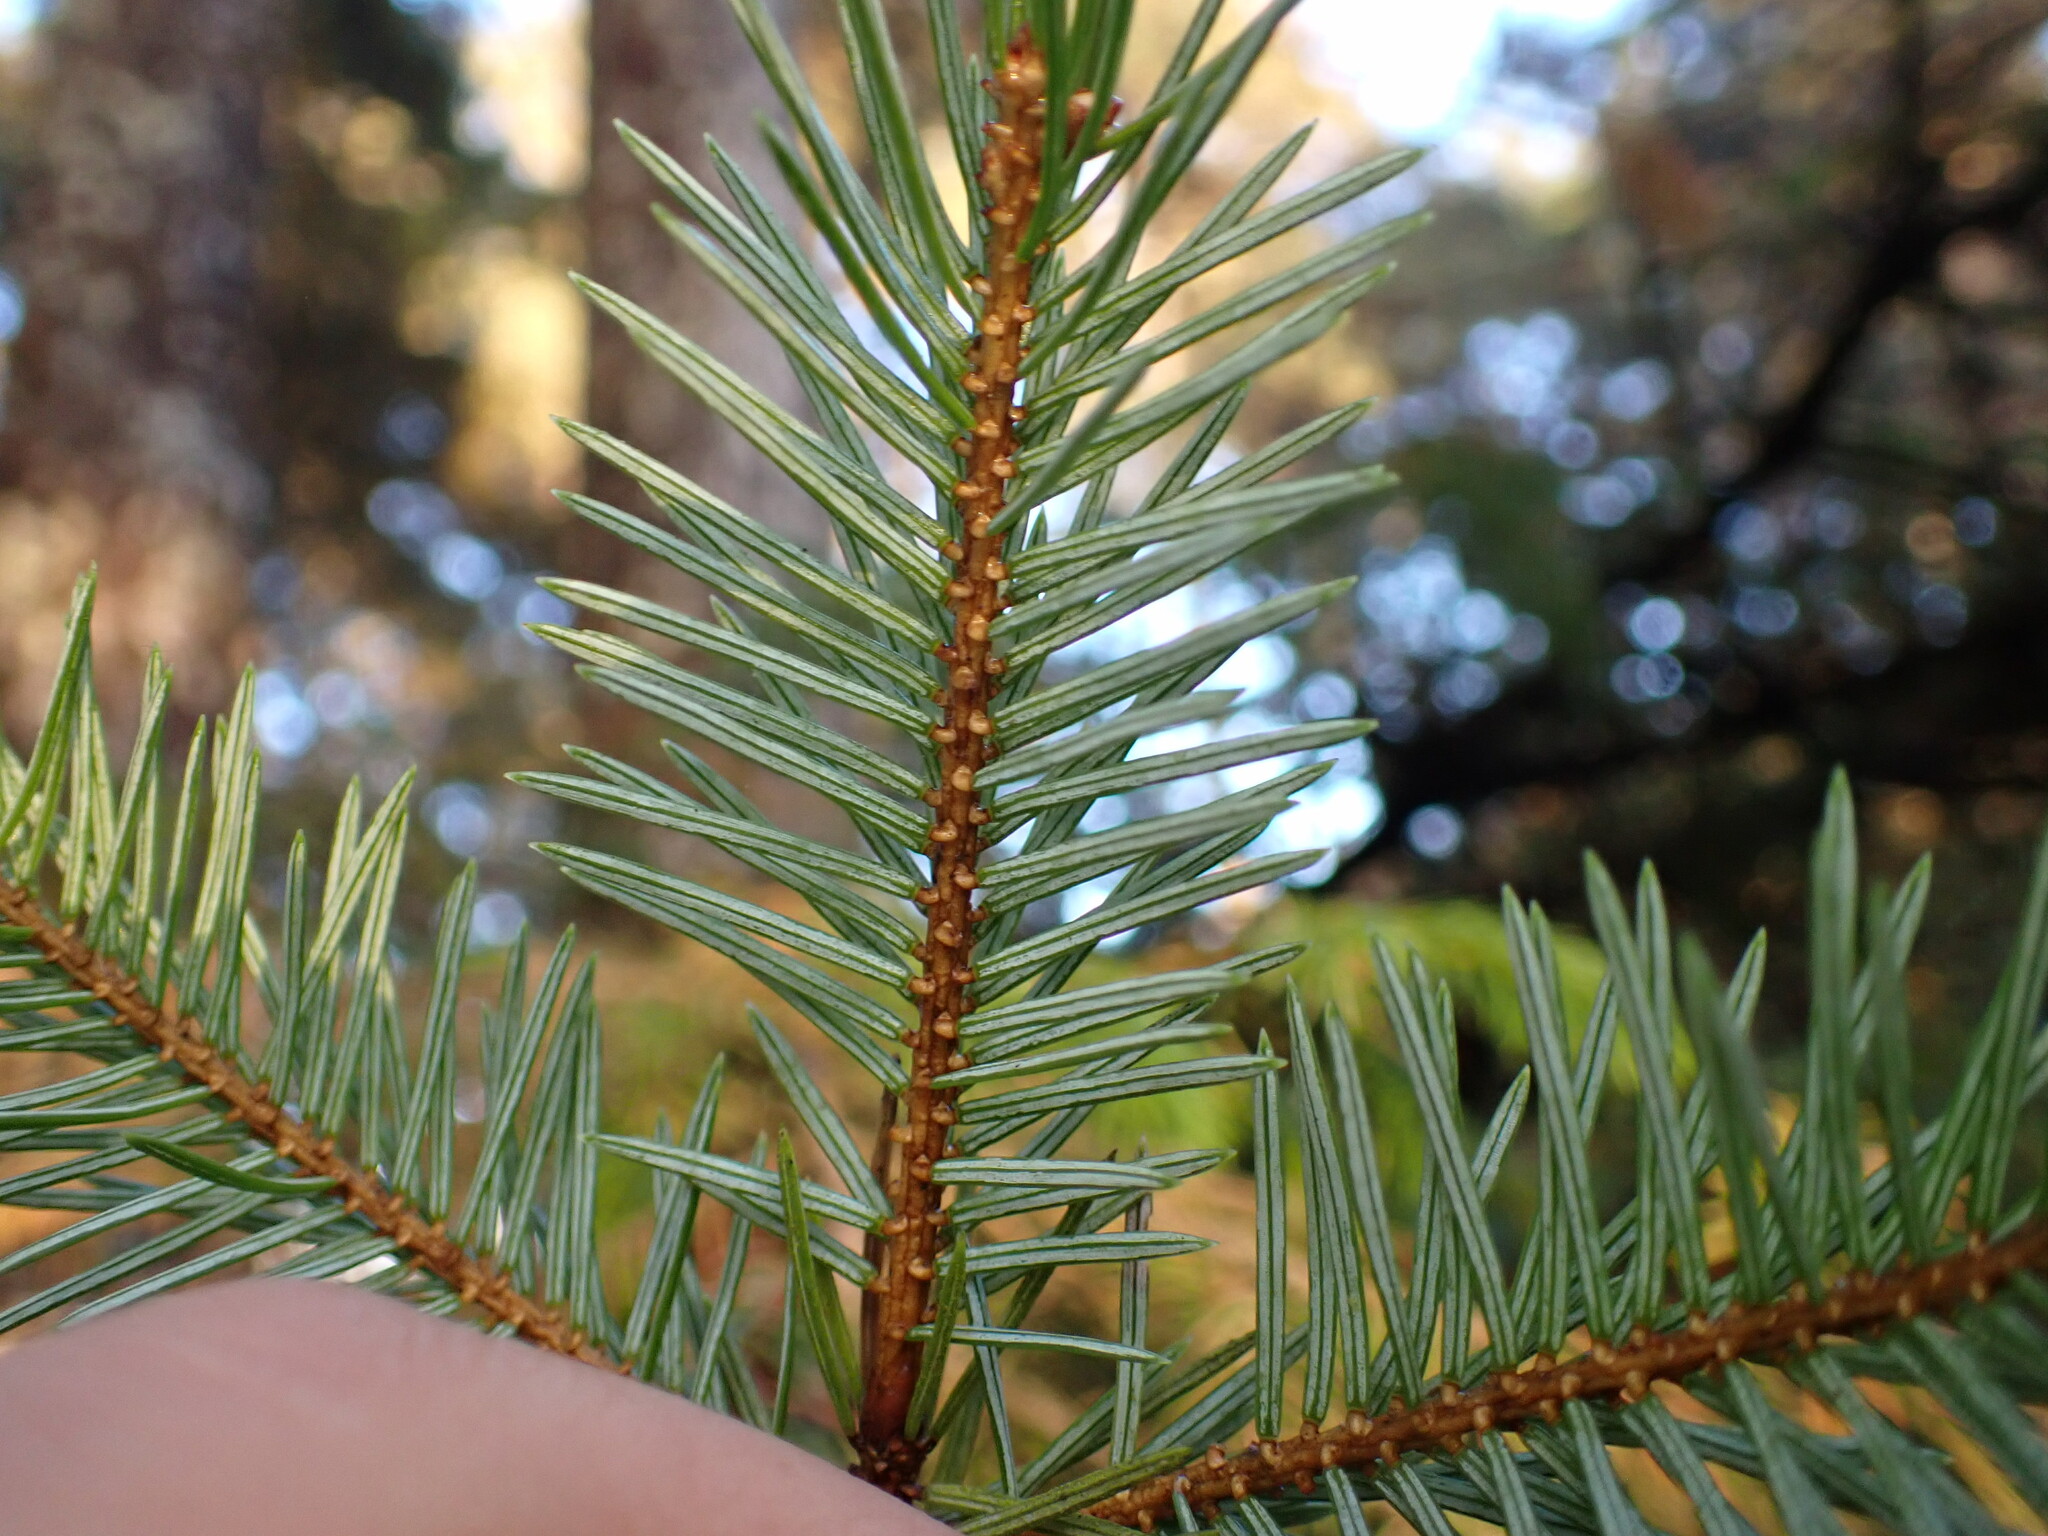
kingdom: Plantae
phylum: Tracheophyta
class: Pinopsida
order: Pinales
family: Pinaceae
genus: Picea
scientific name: Picea sitchensis
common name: Sitka spruce
